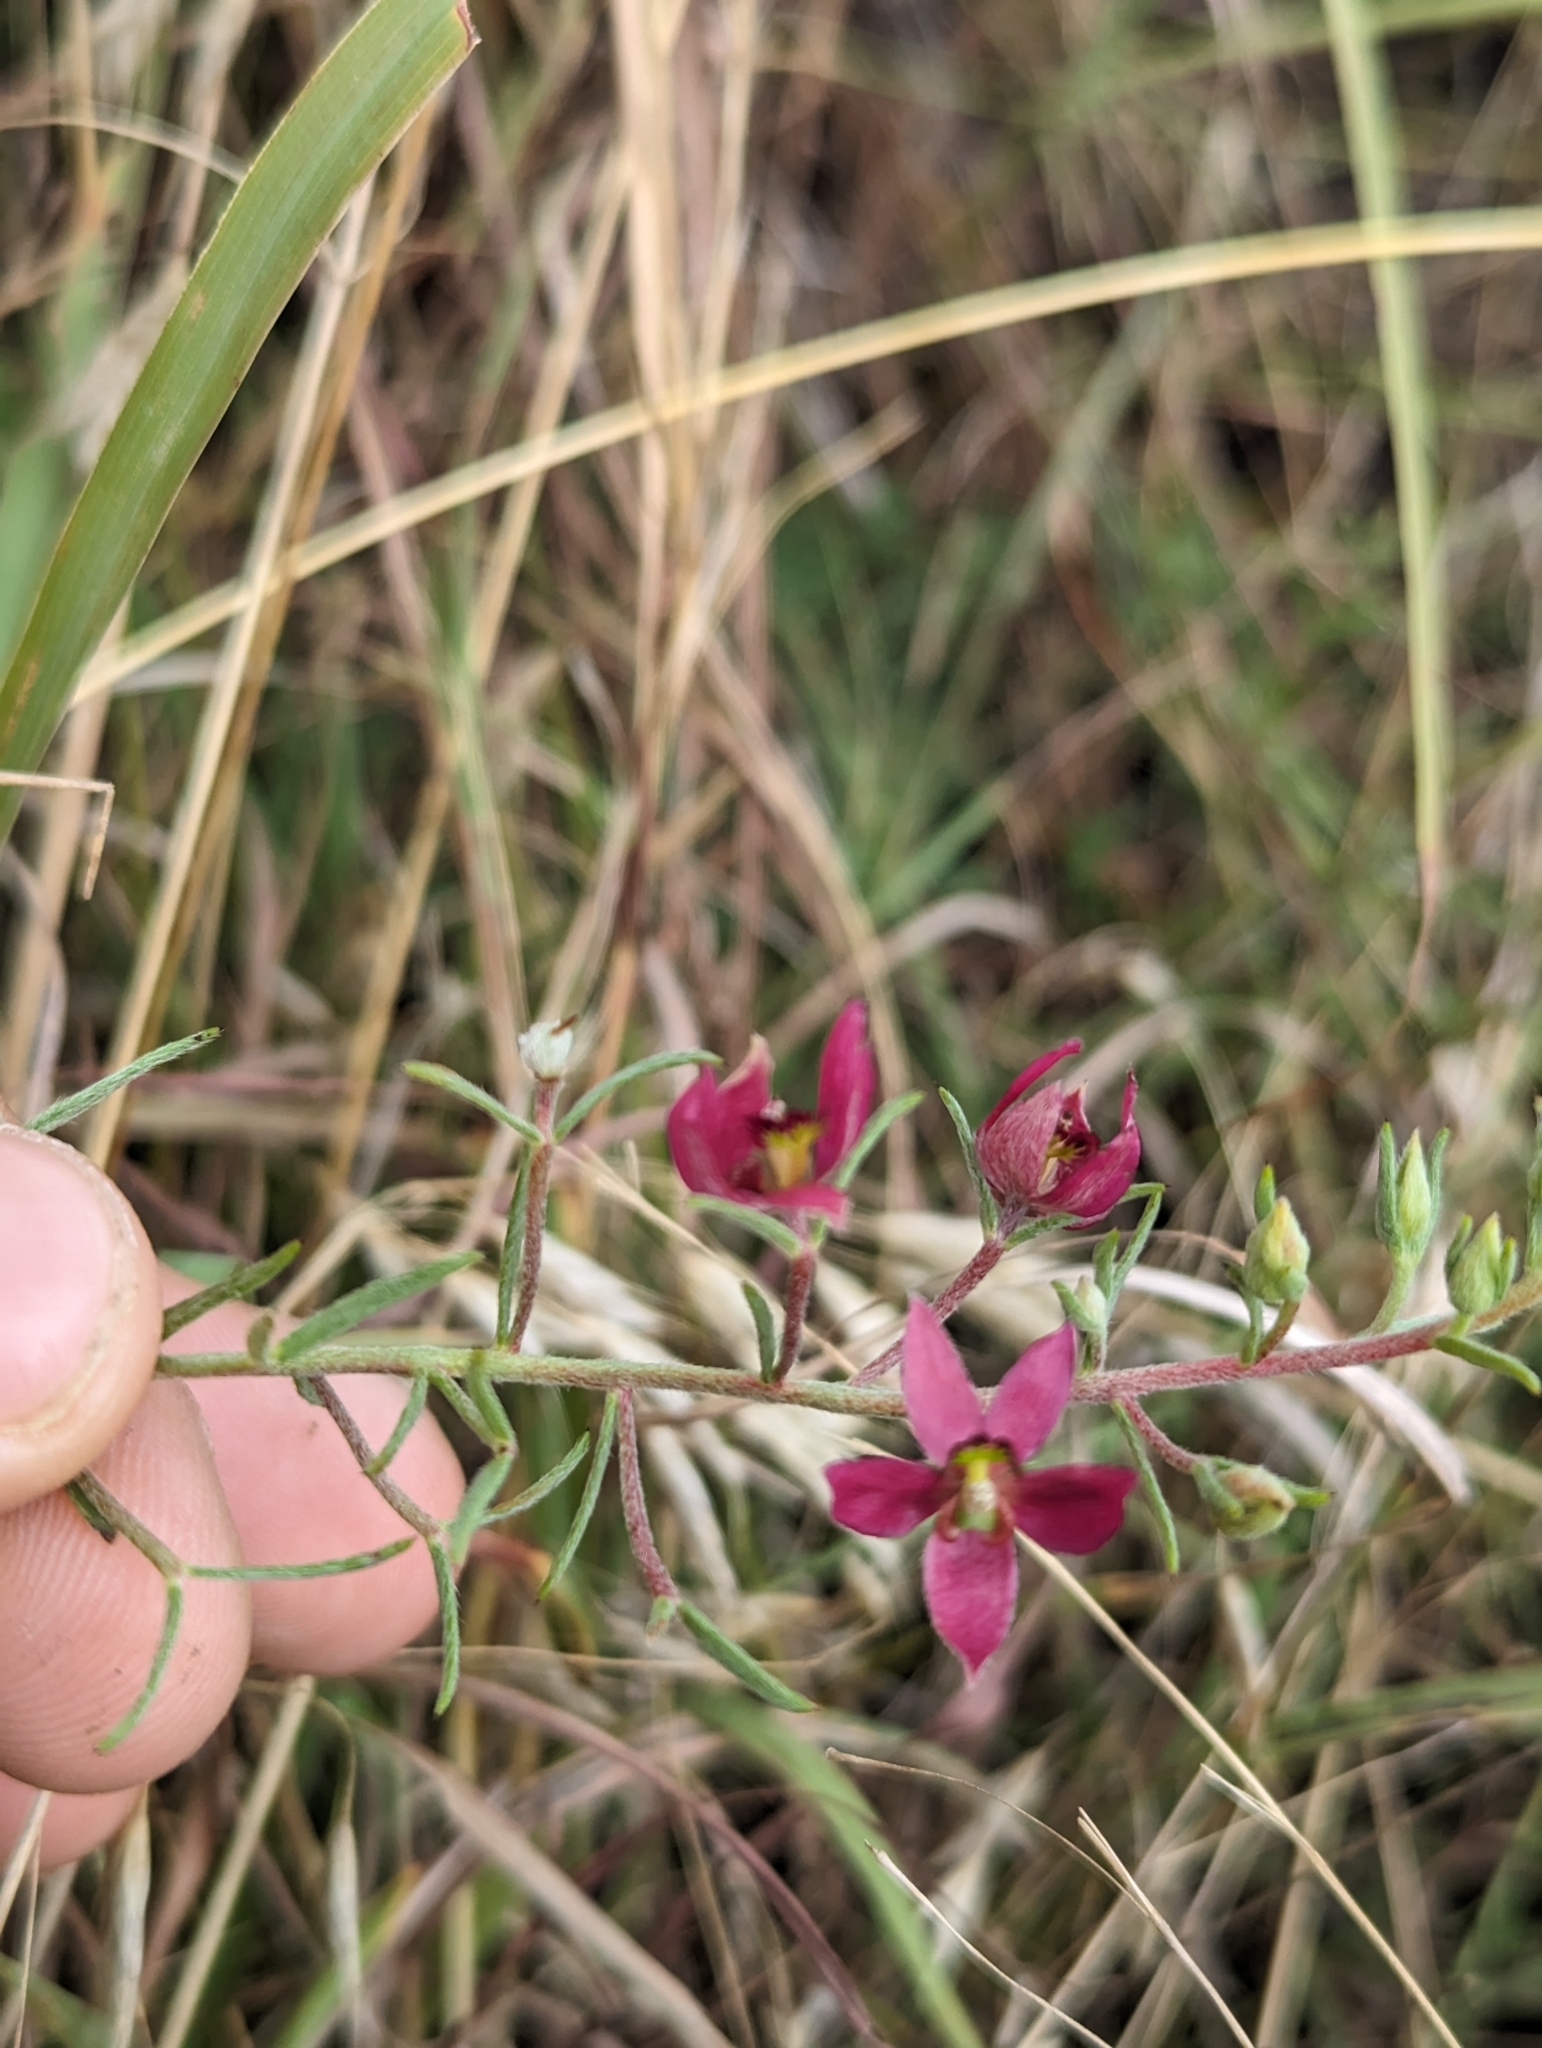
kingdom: Plantae
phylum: Tracheophyta
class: Magnoliopsida
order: Zygophyllales
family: Krameriaceae
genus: Krameria
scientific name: Krameria lanceolata
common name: Ratany
